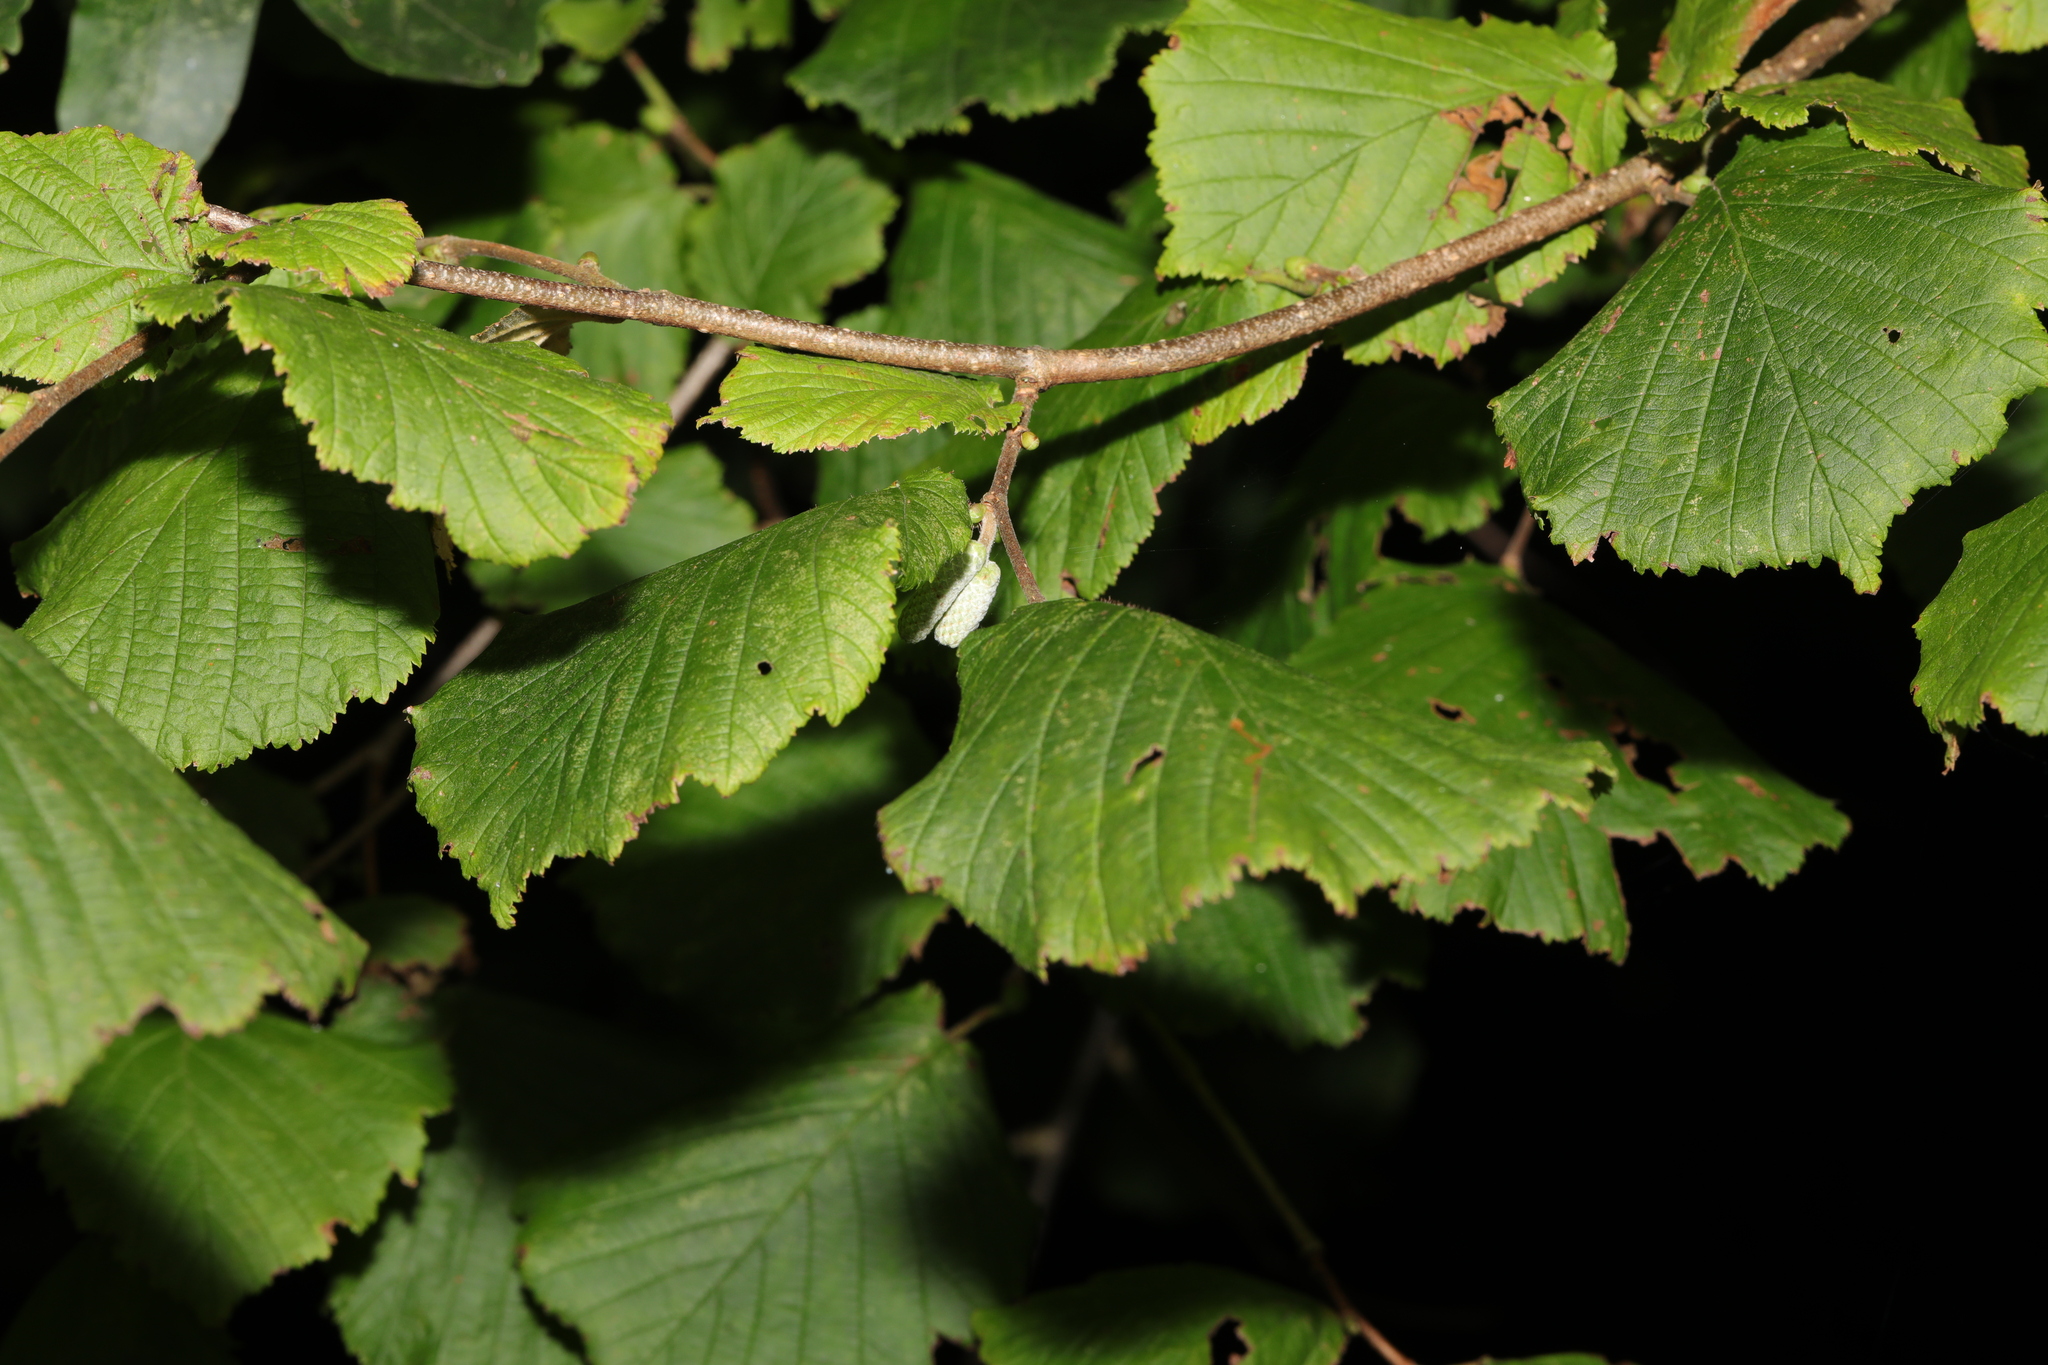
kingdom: Plantae
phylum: Tracheophyta
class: Magnoliopsida
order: Fagales
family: Betulaceae
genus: Corylus
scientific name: Corylus avellana
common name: European hazel
